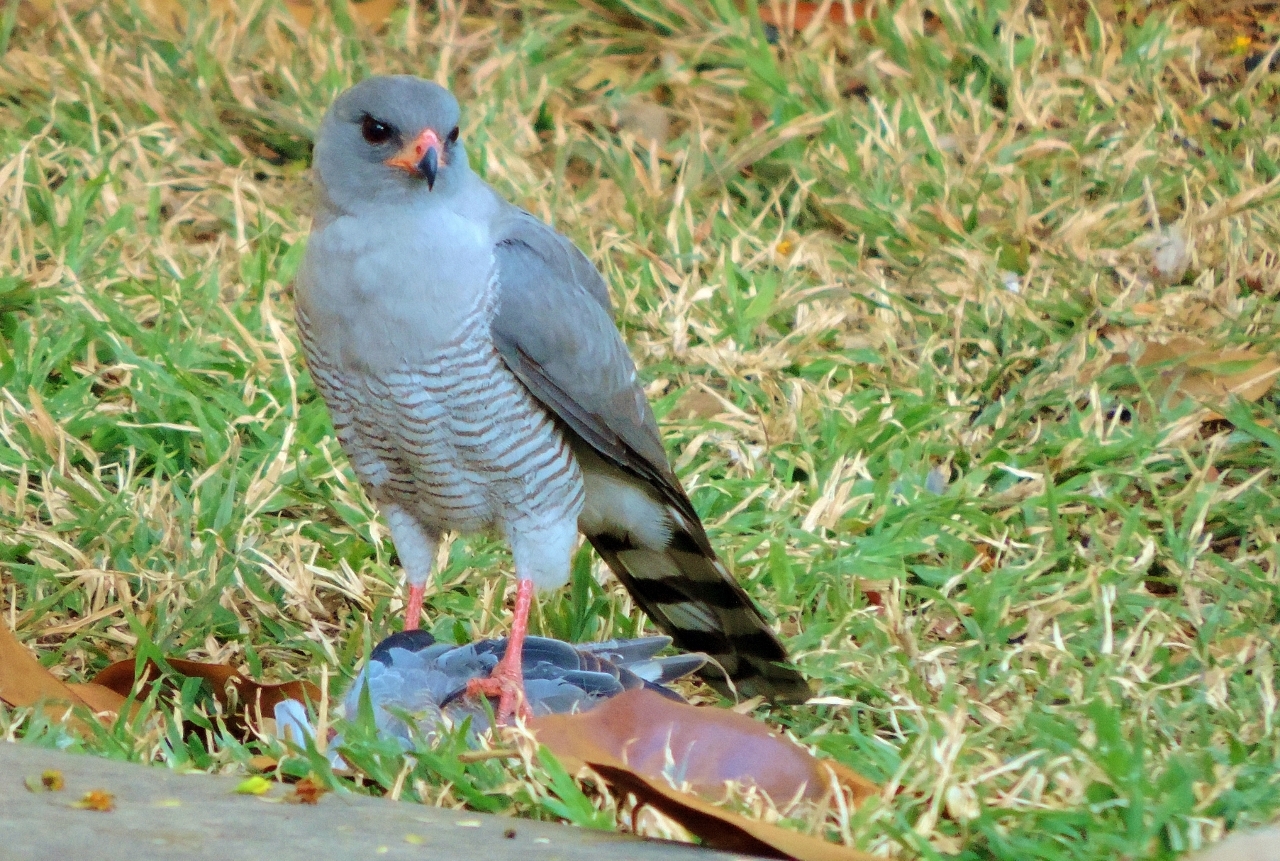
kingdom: Animalia
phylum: Chordata
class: Aves
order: Accipitriformes
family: Accipitridae
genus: Micronisus
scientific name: Micronisus gabar
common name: Gabar goshawk
